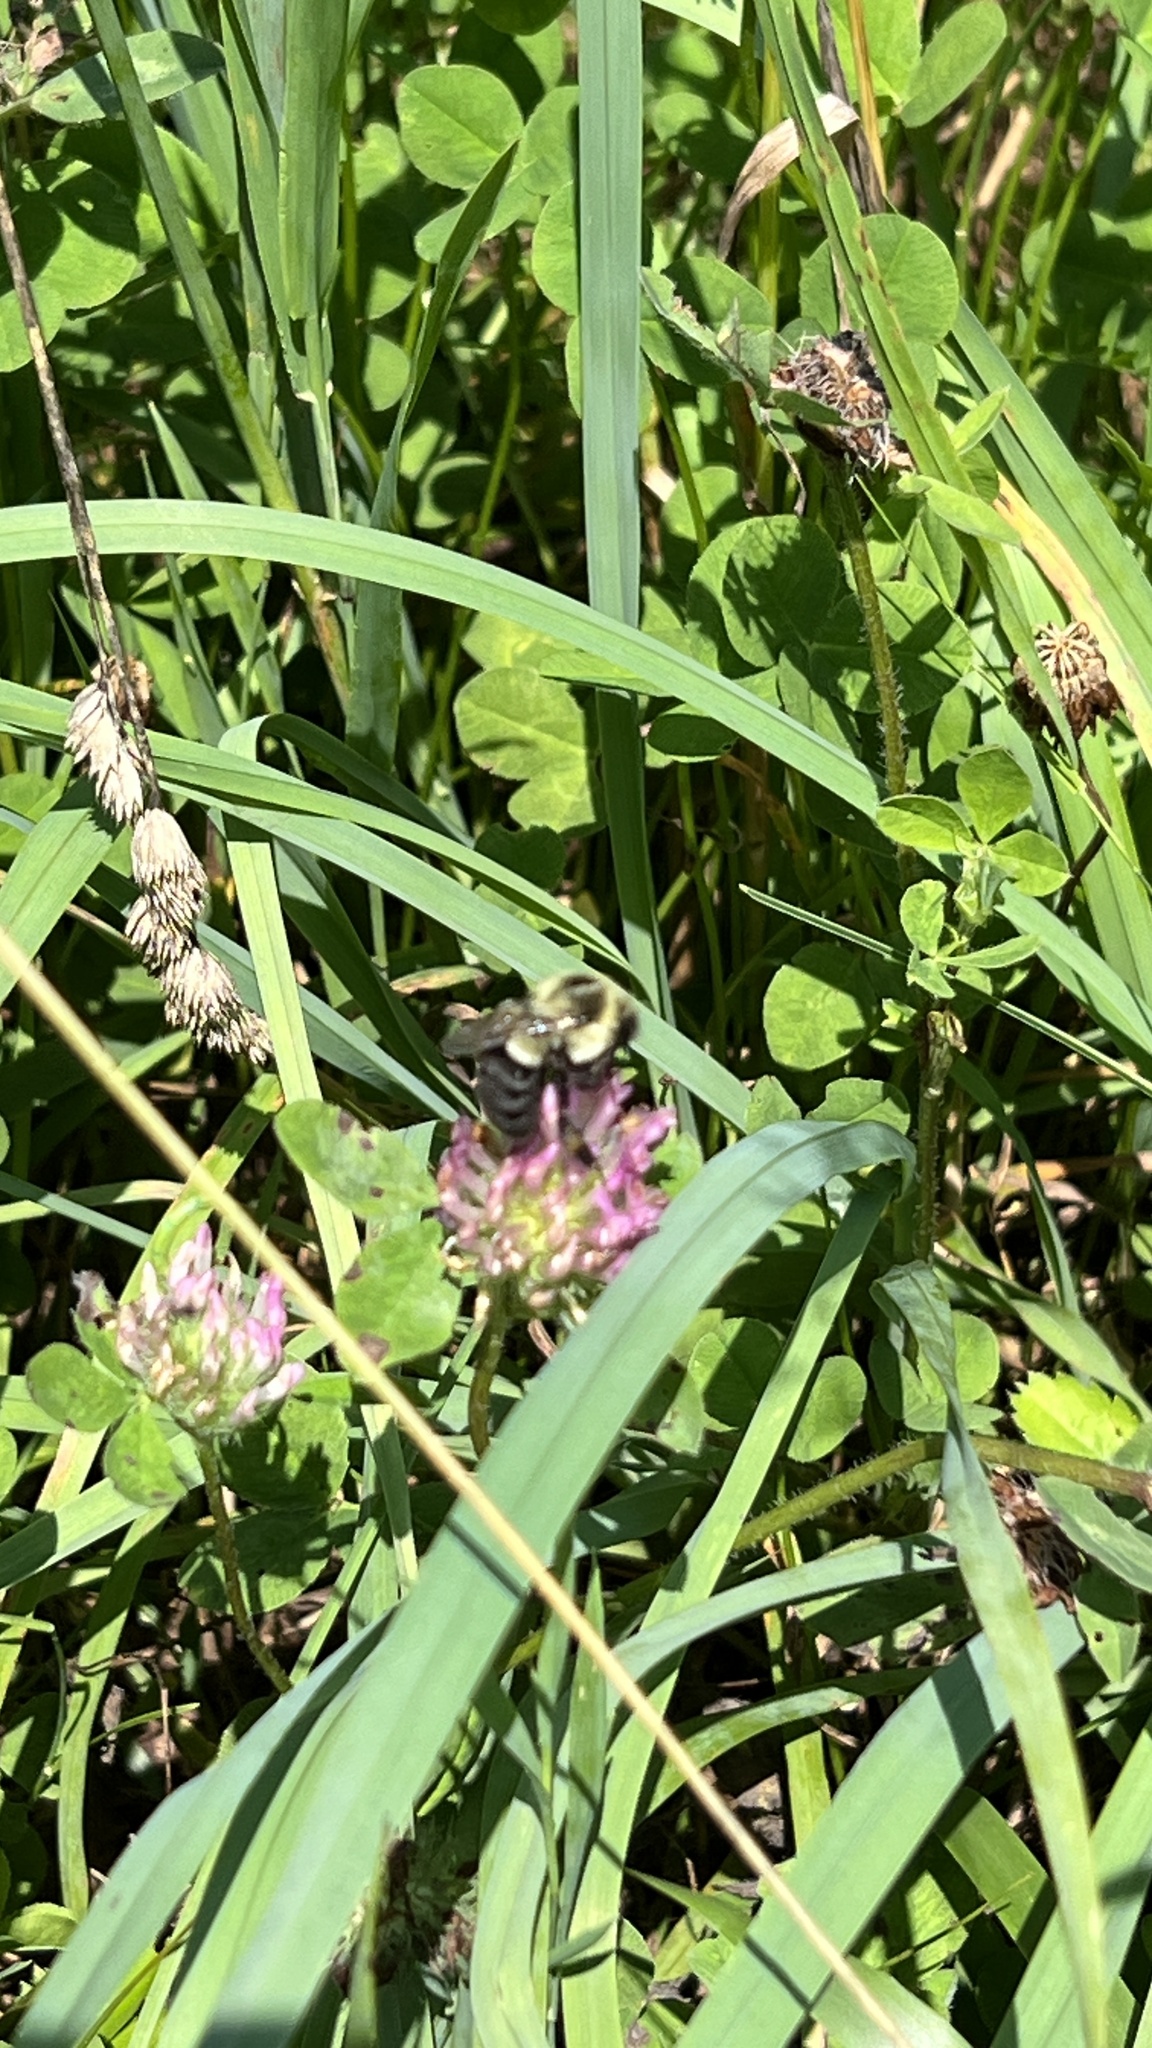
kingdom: Animalia
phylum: Arthropoda
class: Insecta
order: Hymenoptera
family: Apidae
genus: Bombus
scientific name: Bombus impatiens
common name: Common eastern bumble bee
